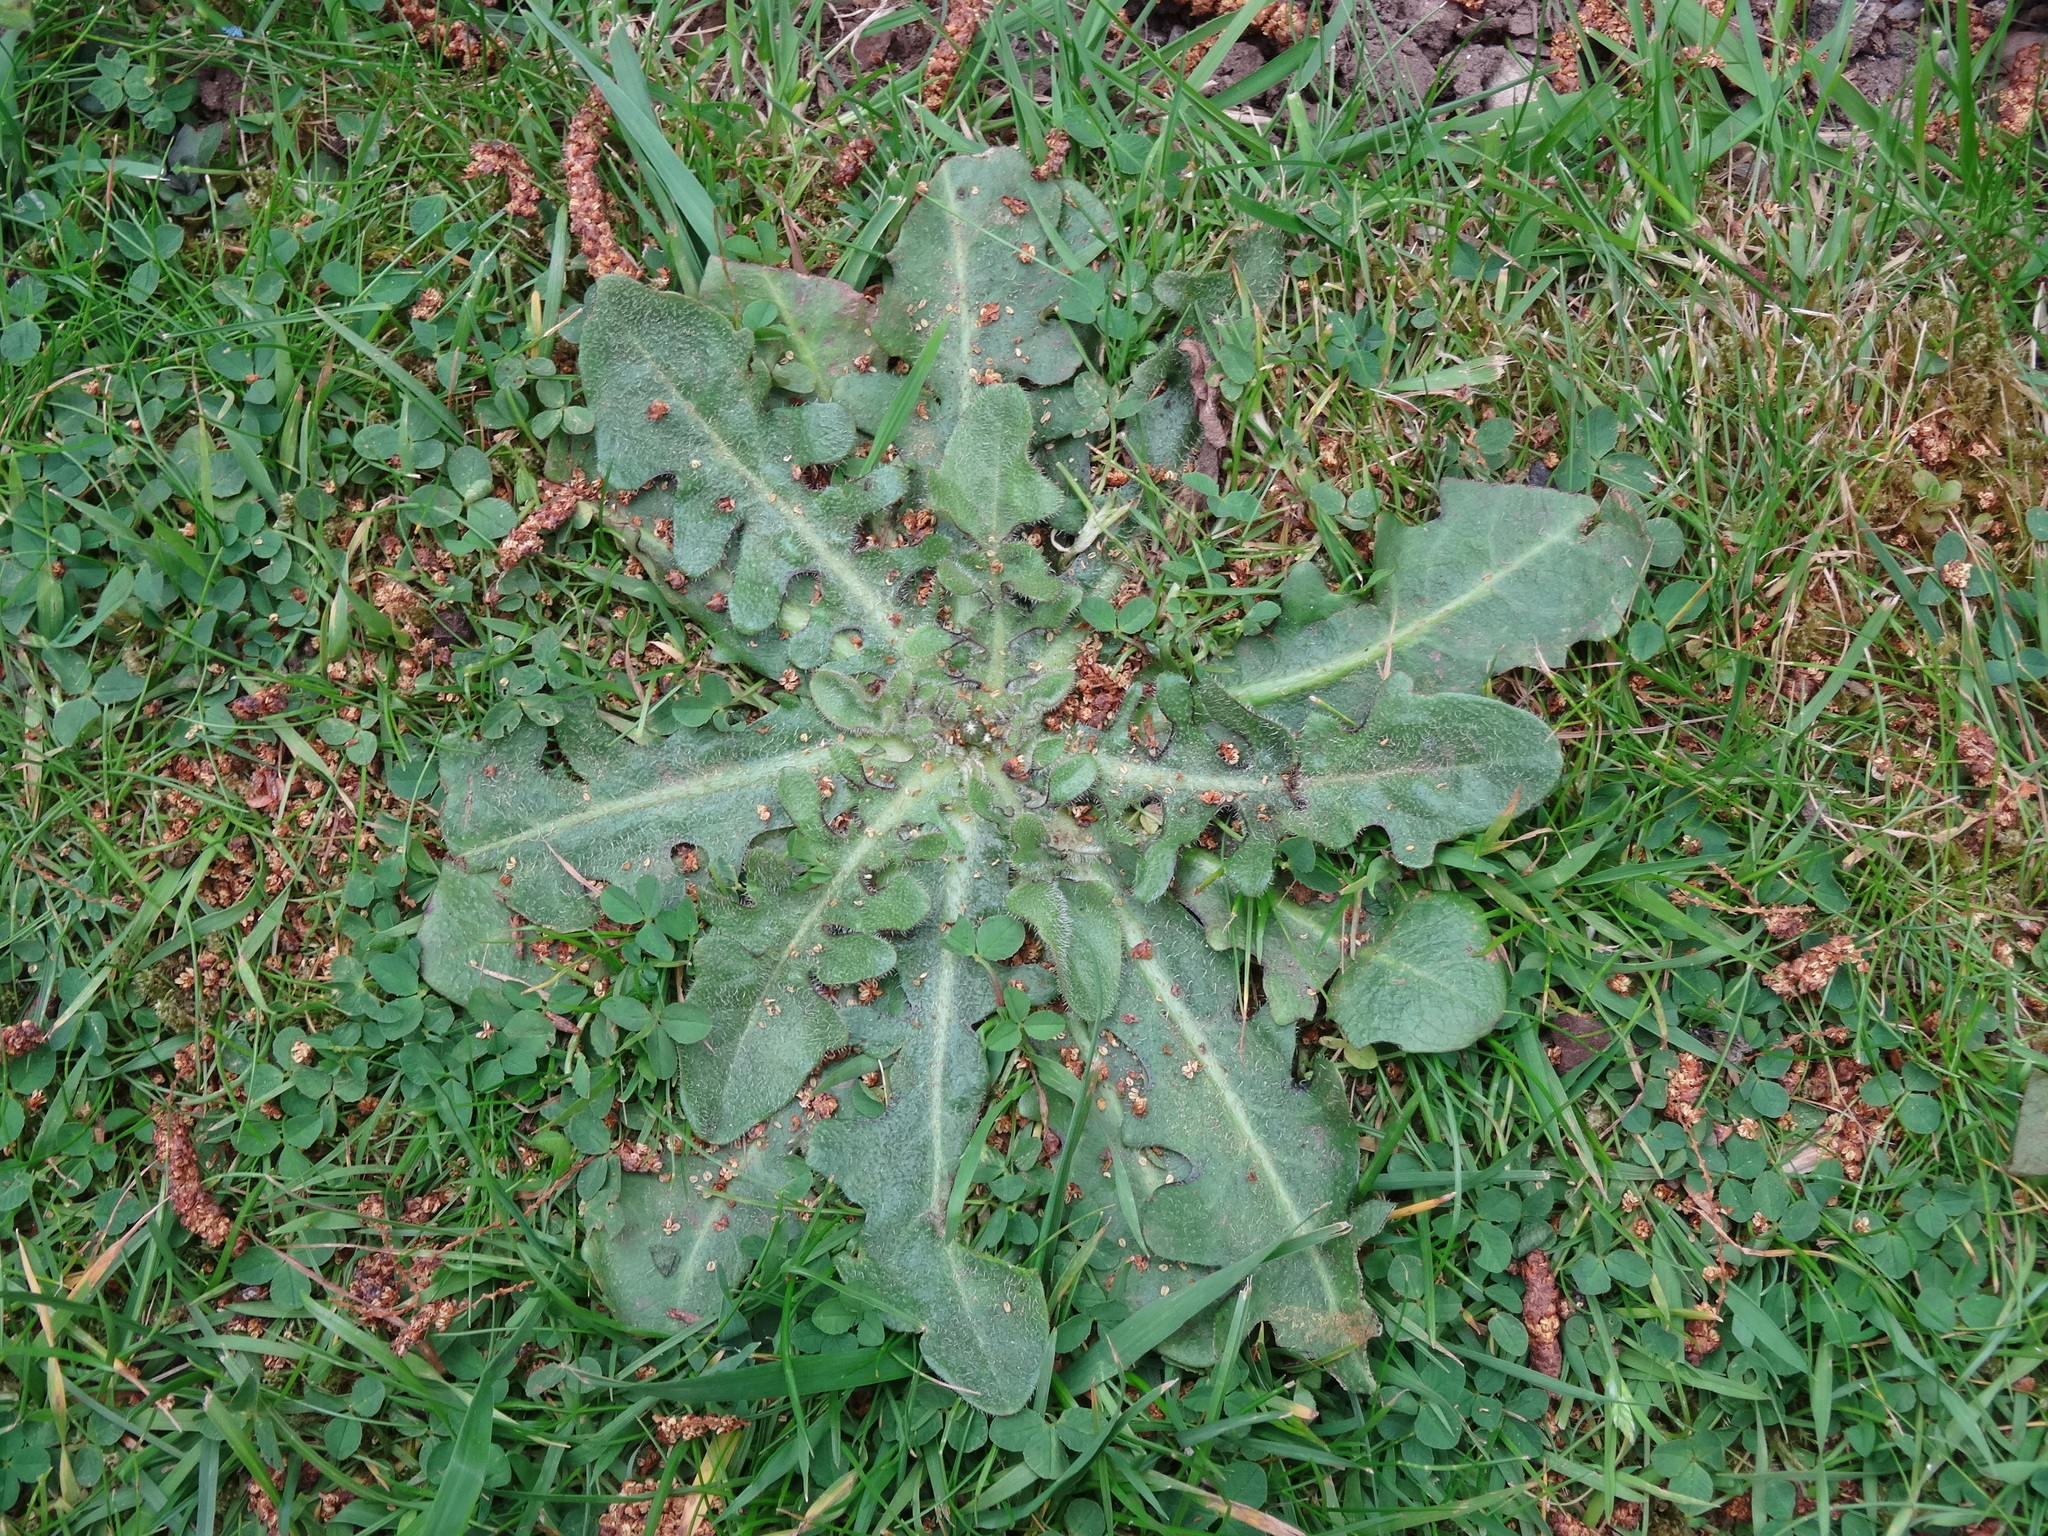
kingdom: Plantae
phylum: Tracheophyta
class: Magnoliopsida
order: Asterales
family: Asteraceae
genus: Hypochaeris
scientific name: Hypochaeris radicata
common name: Flatweed
